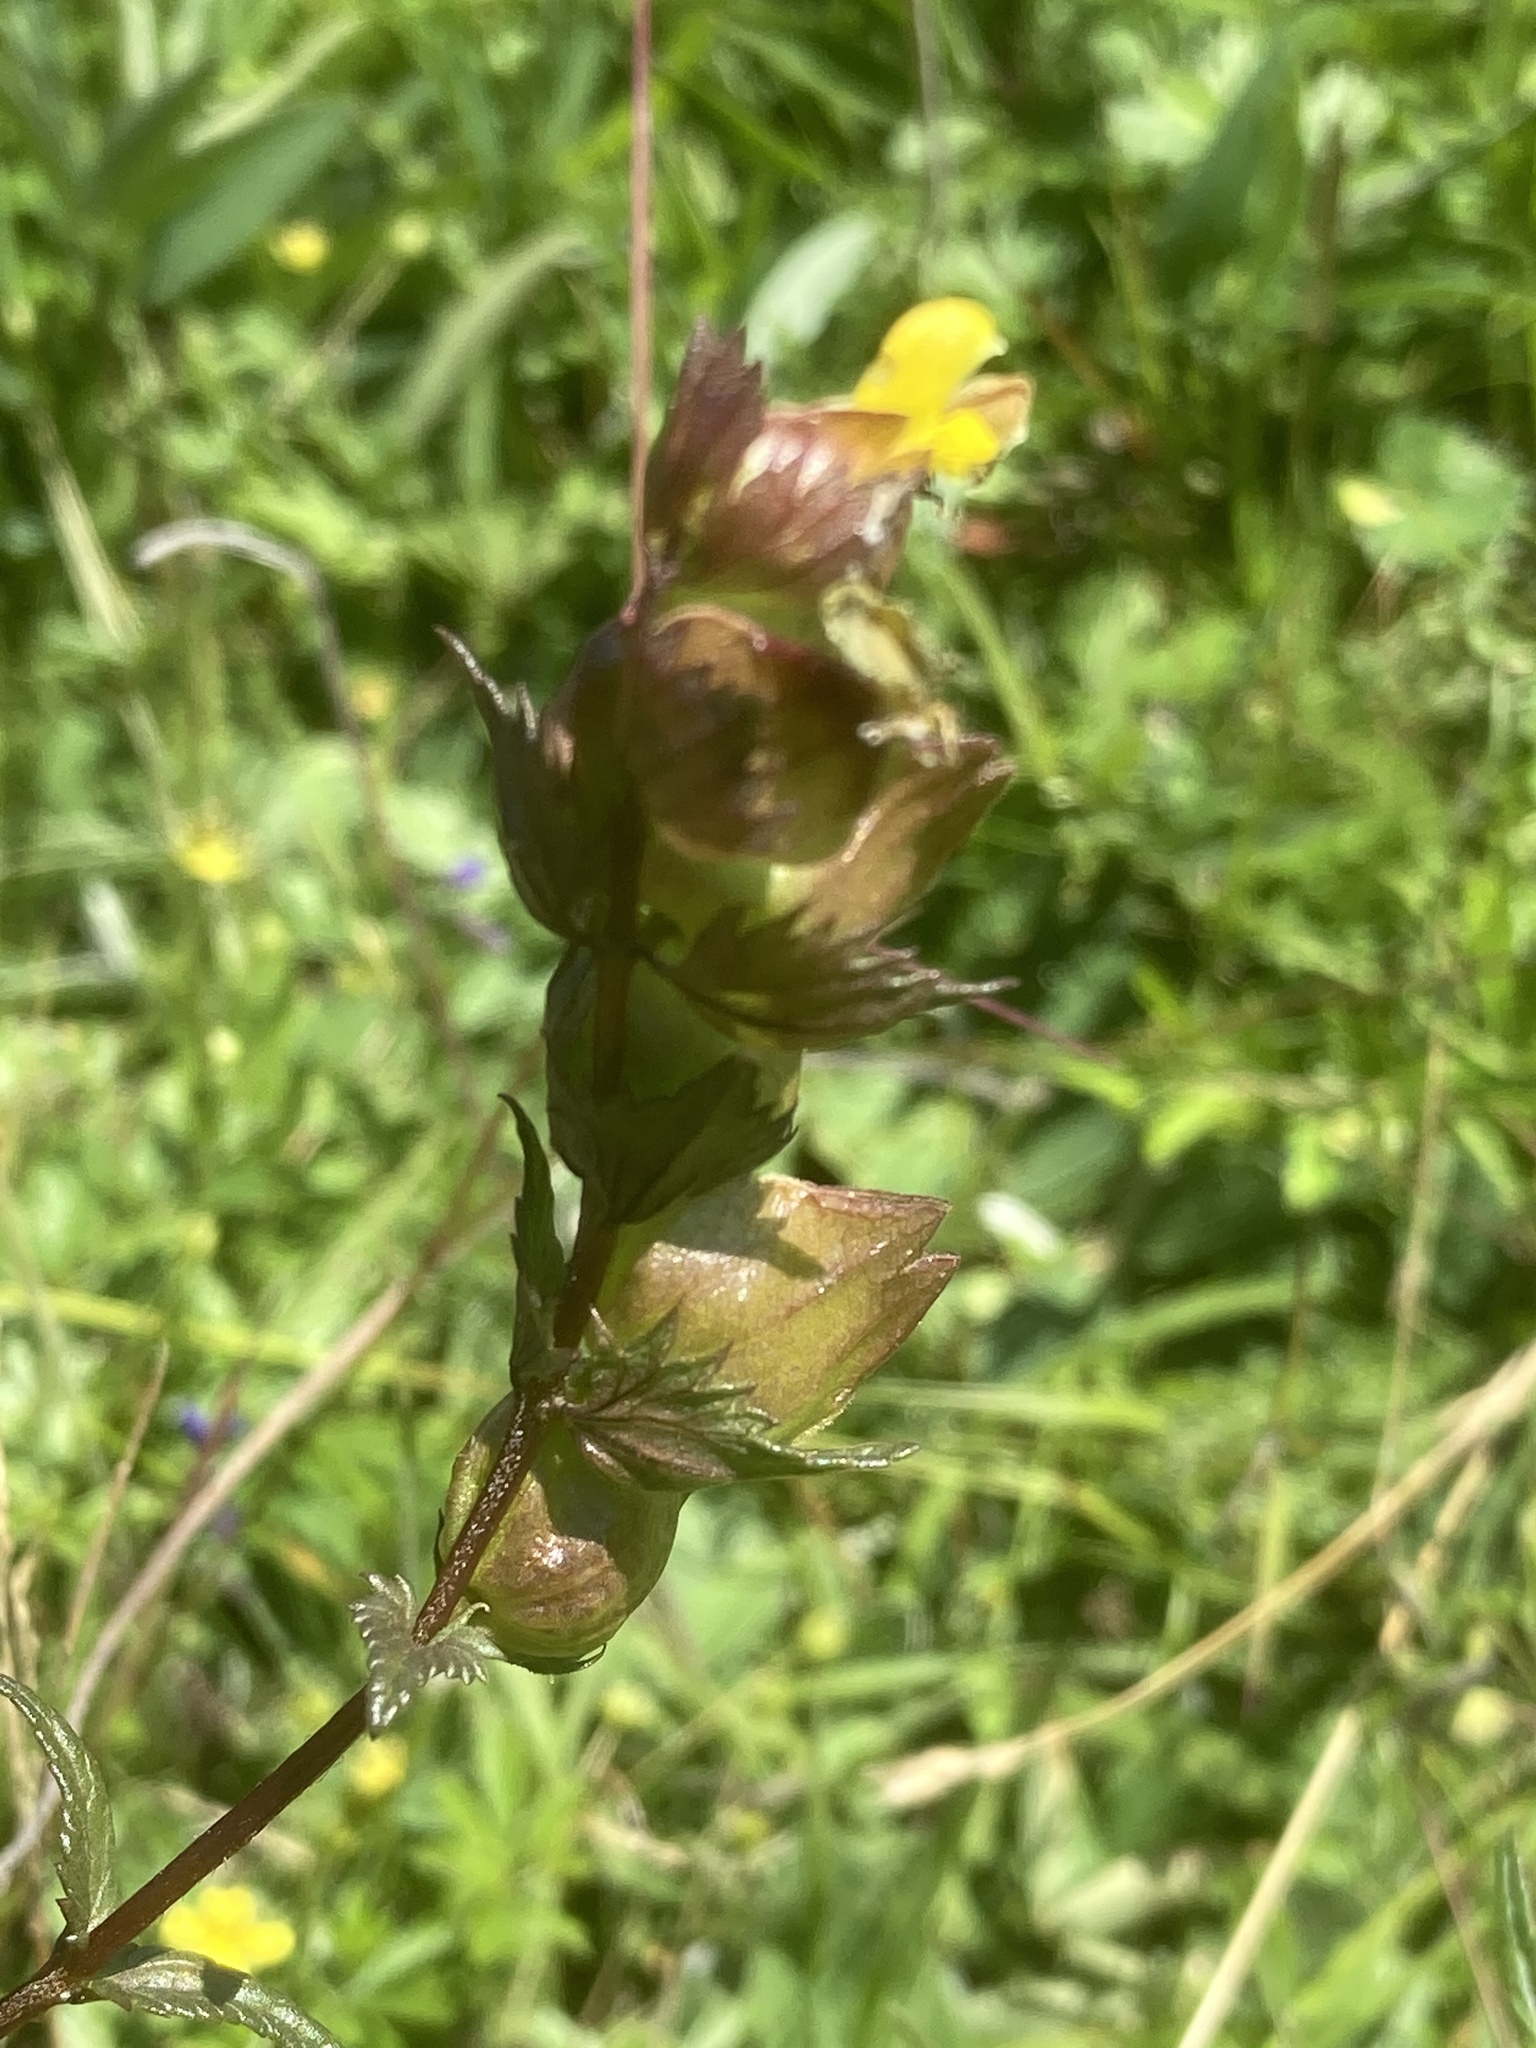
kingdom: Plantae
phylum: Tracheophyta
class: Magnoliopsida
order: Lamiales
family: Orobanchaceae
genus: Rhinanthus
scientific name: Rhinanthus minor
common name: Yellow-rattle
